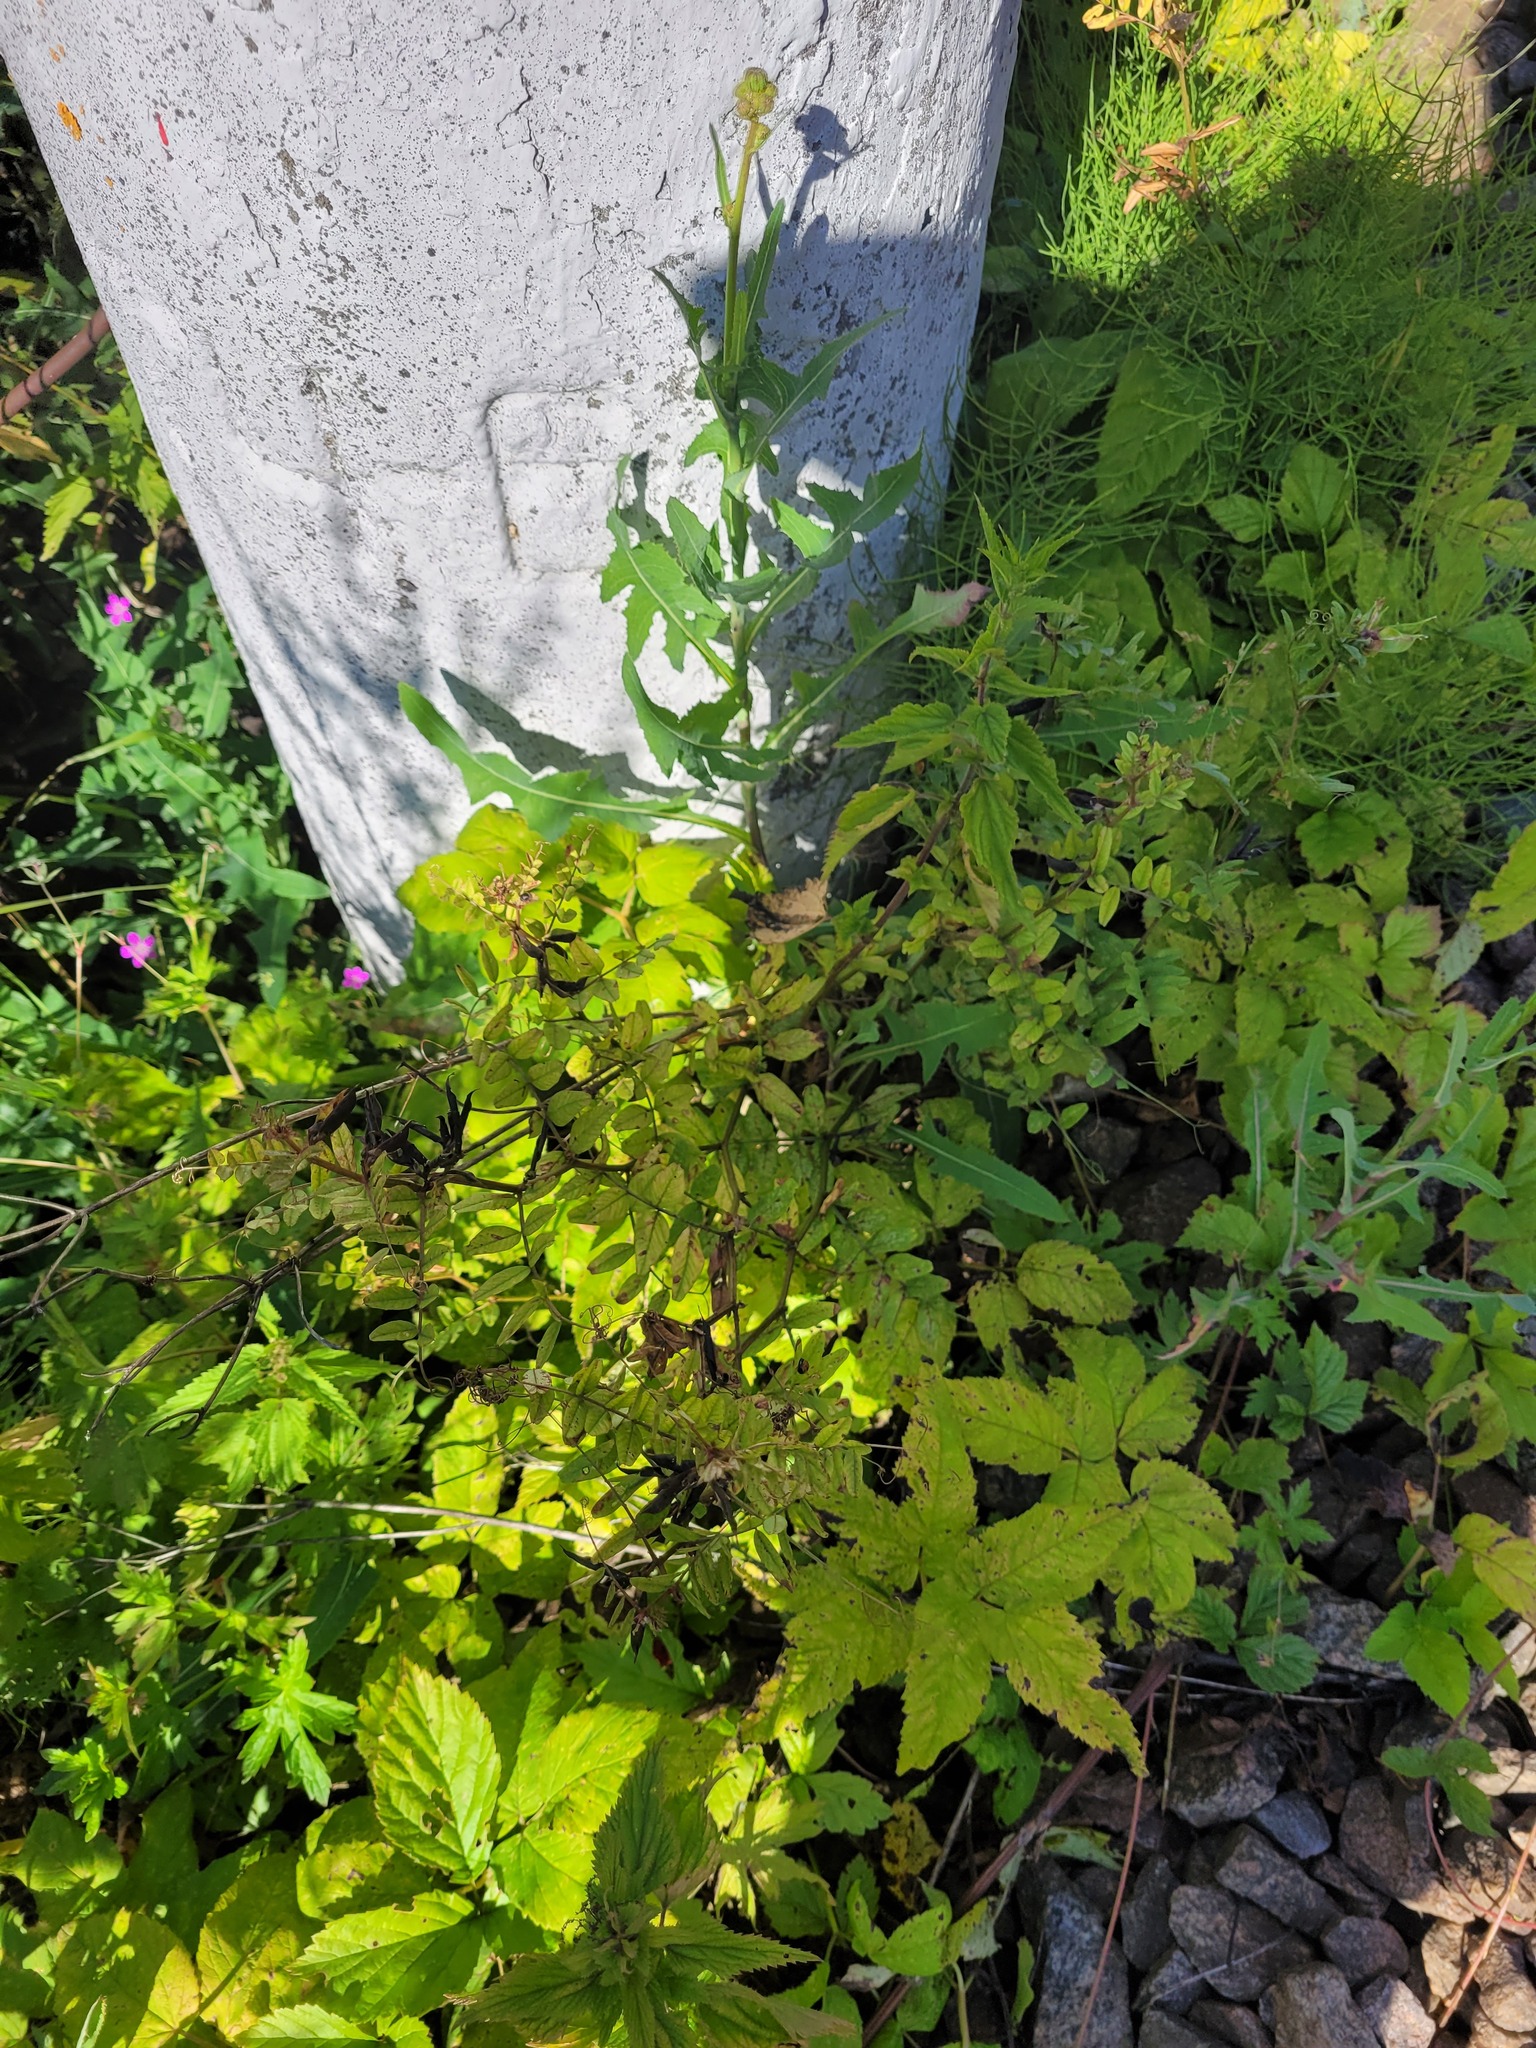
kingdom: Plantae
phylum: Tracheophyta
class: Magnoliopsida
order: Fabales
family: Fabaceae
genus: Vicia
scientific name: Vicia sepium
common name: Bush vetch
